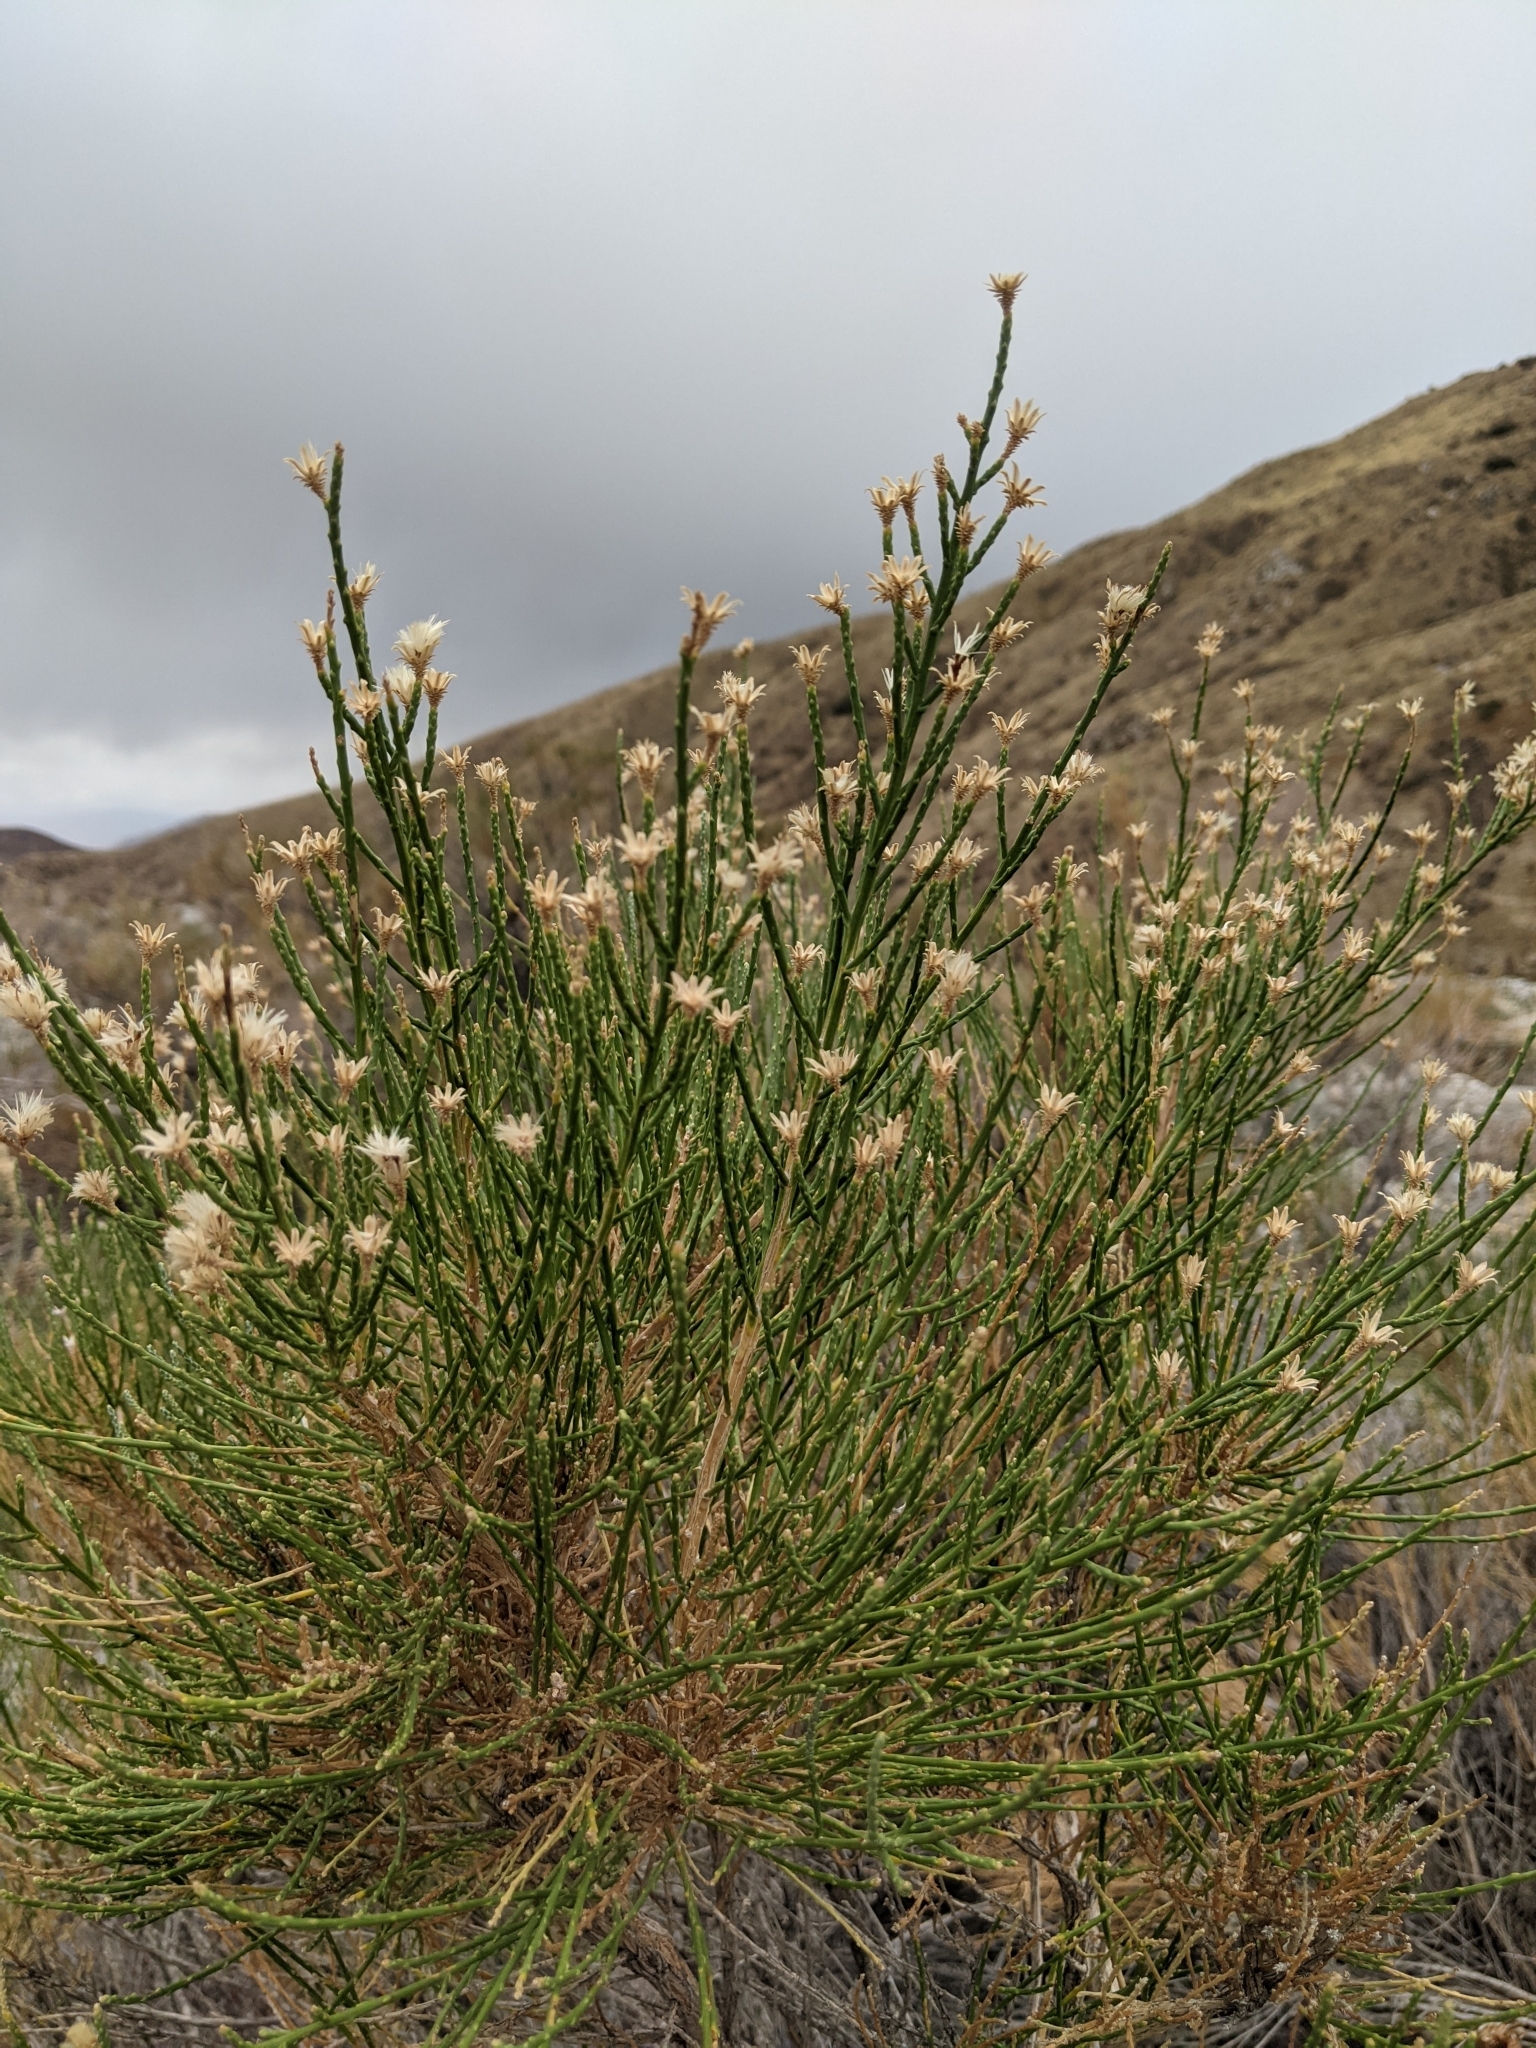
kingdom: Plantae
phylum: Tracheophyta
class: Magnoliopsida
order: Asterales
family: Asteraceae
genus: Lepidospartum
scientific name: Lepidospartum squamatum
